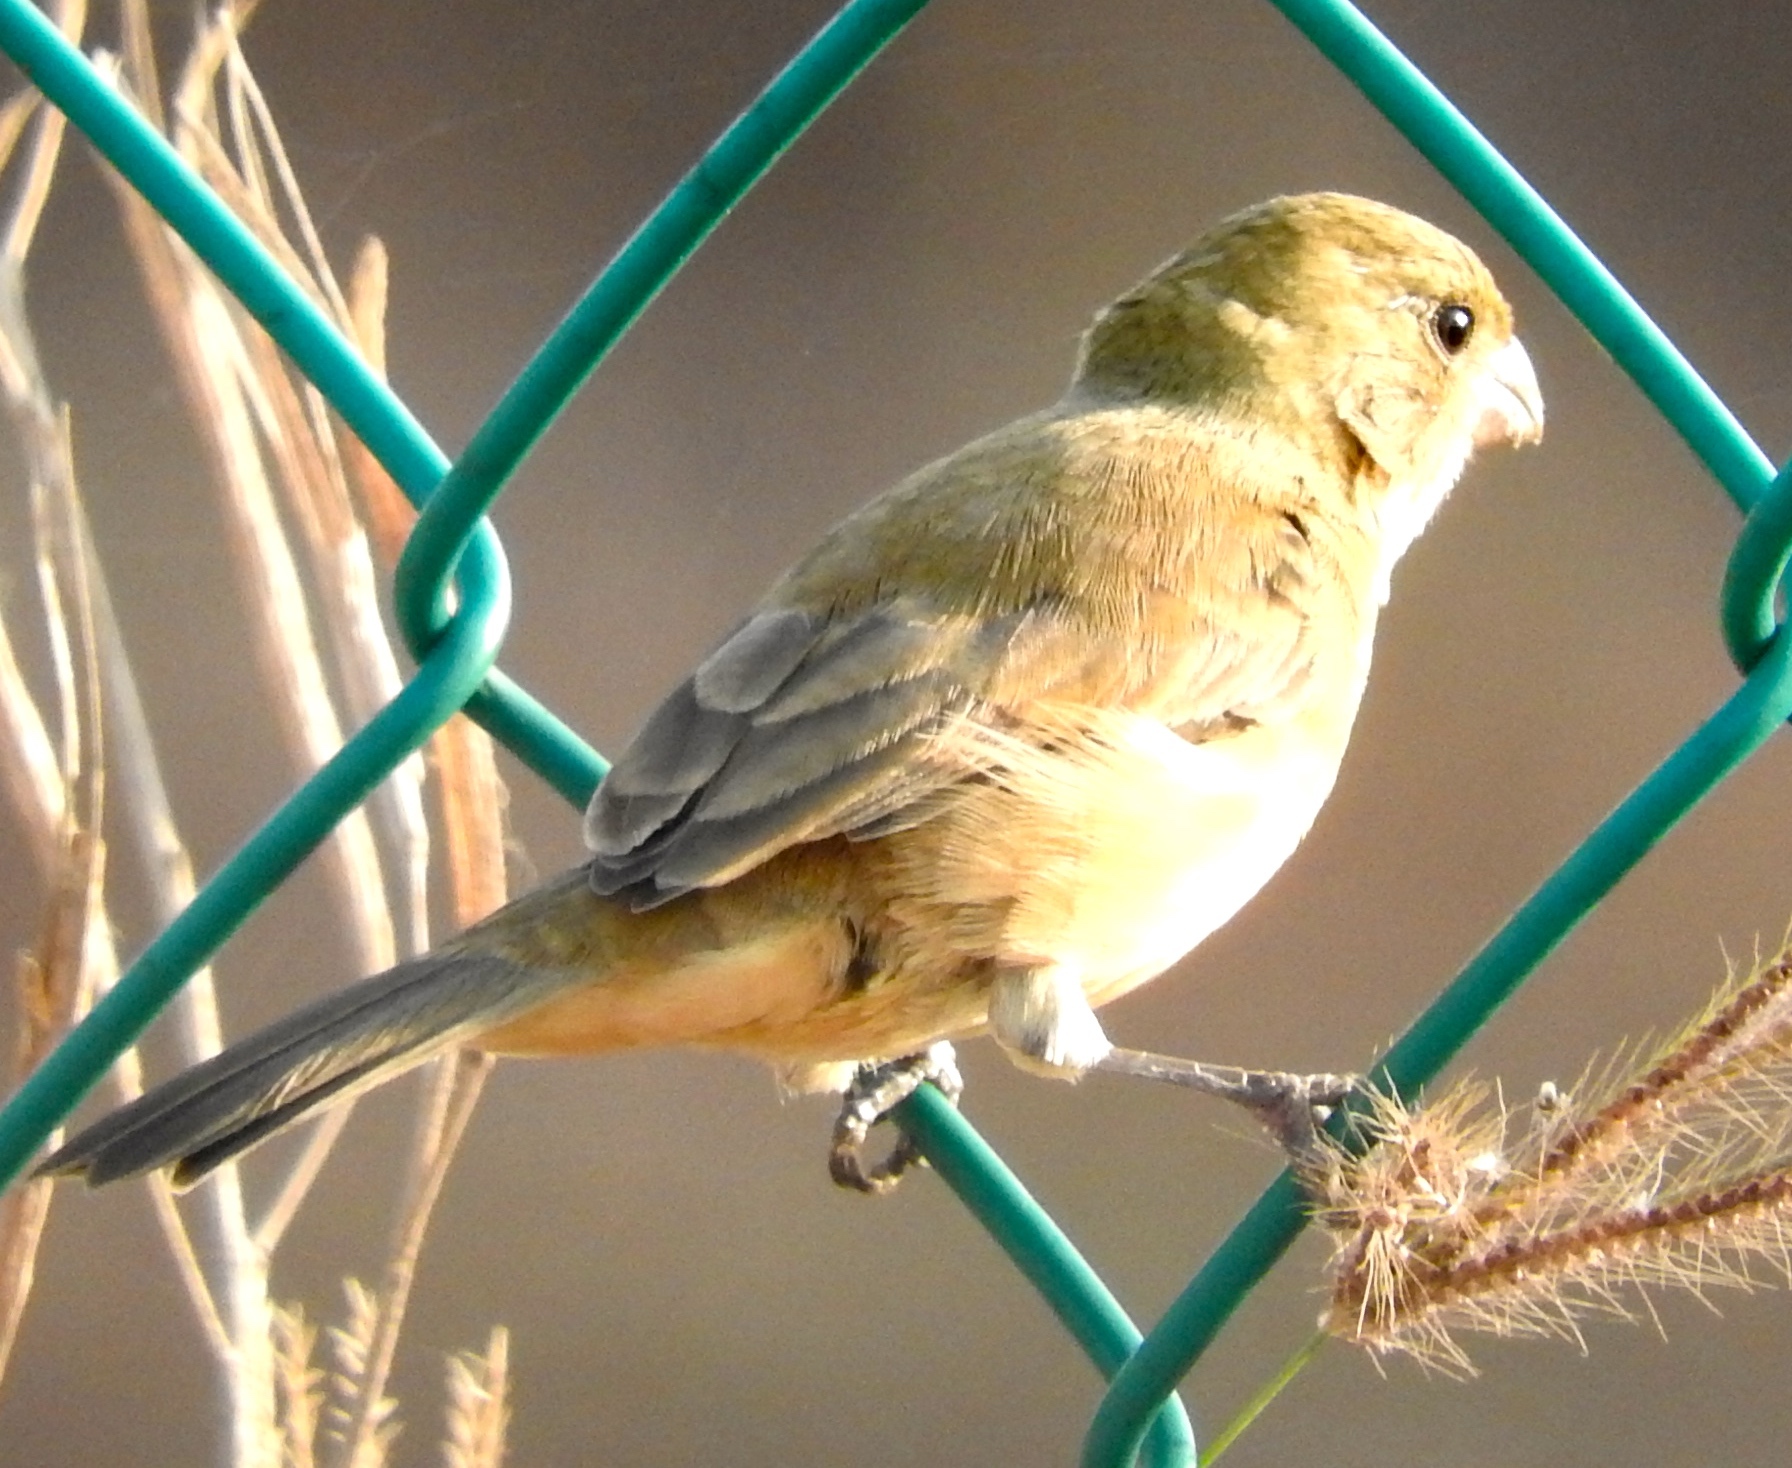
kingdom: Animalia
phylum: Chordata
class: Aves
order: Passeriformes
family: Thraupidae
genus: Sporophila
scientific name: Sporophila torqueola
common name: White-collared seedeater
